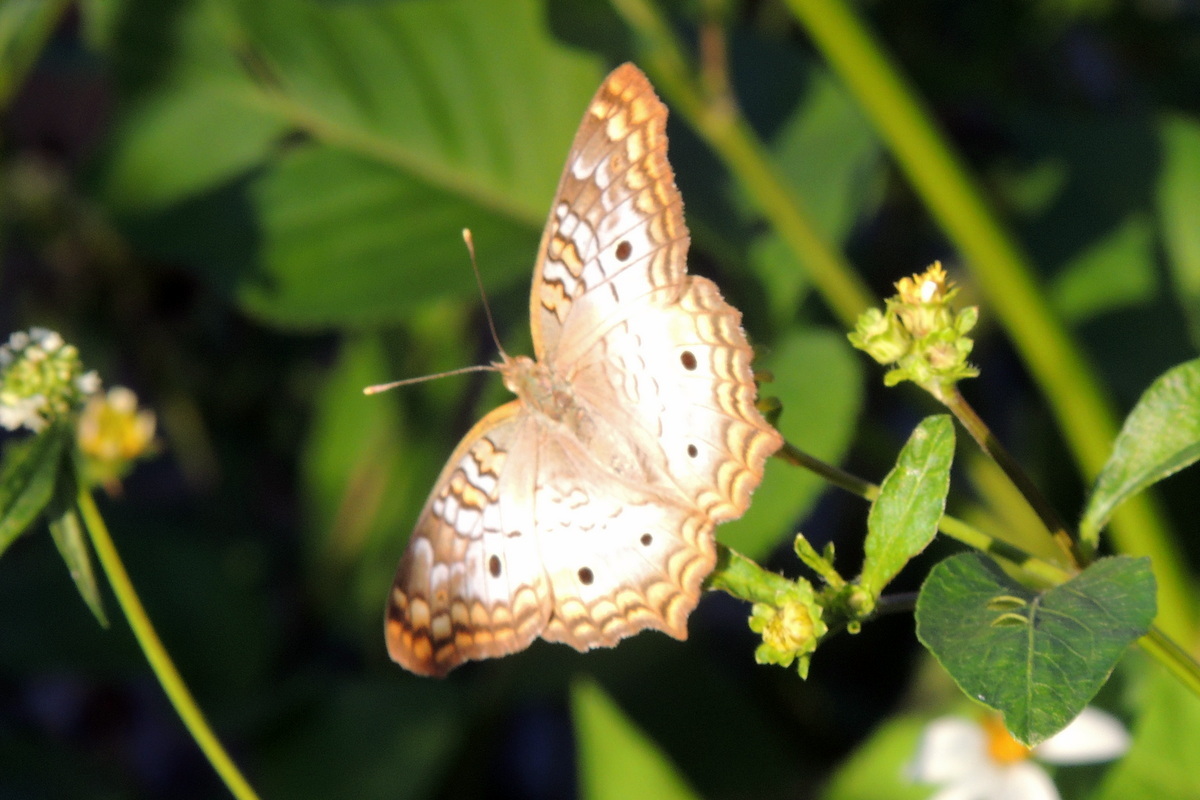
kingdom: Animalia
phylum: Arthropoda
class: Insecta
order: Lepidoptera
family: Nymphalidae
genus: Anartia
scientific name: Anartia jatrophae
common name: White peacock
